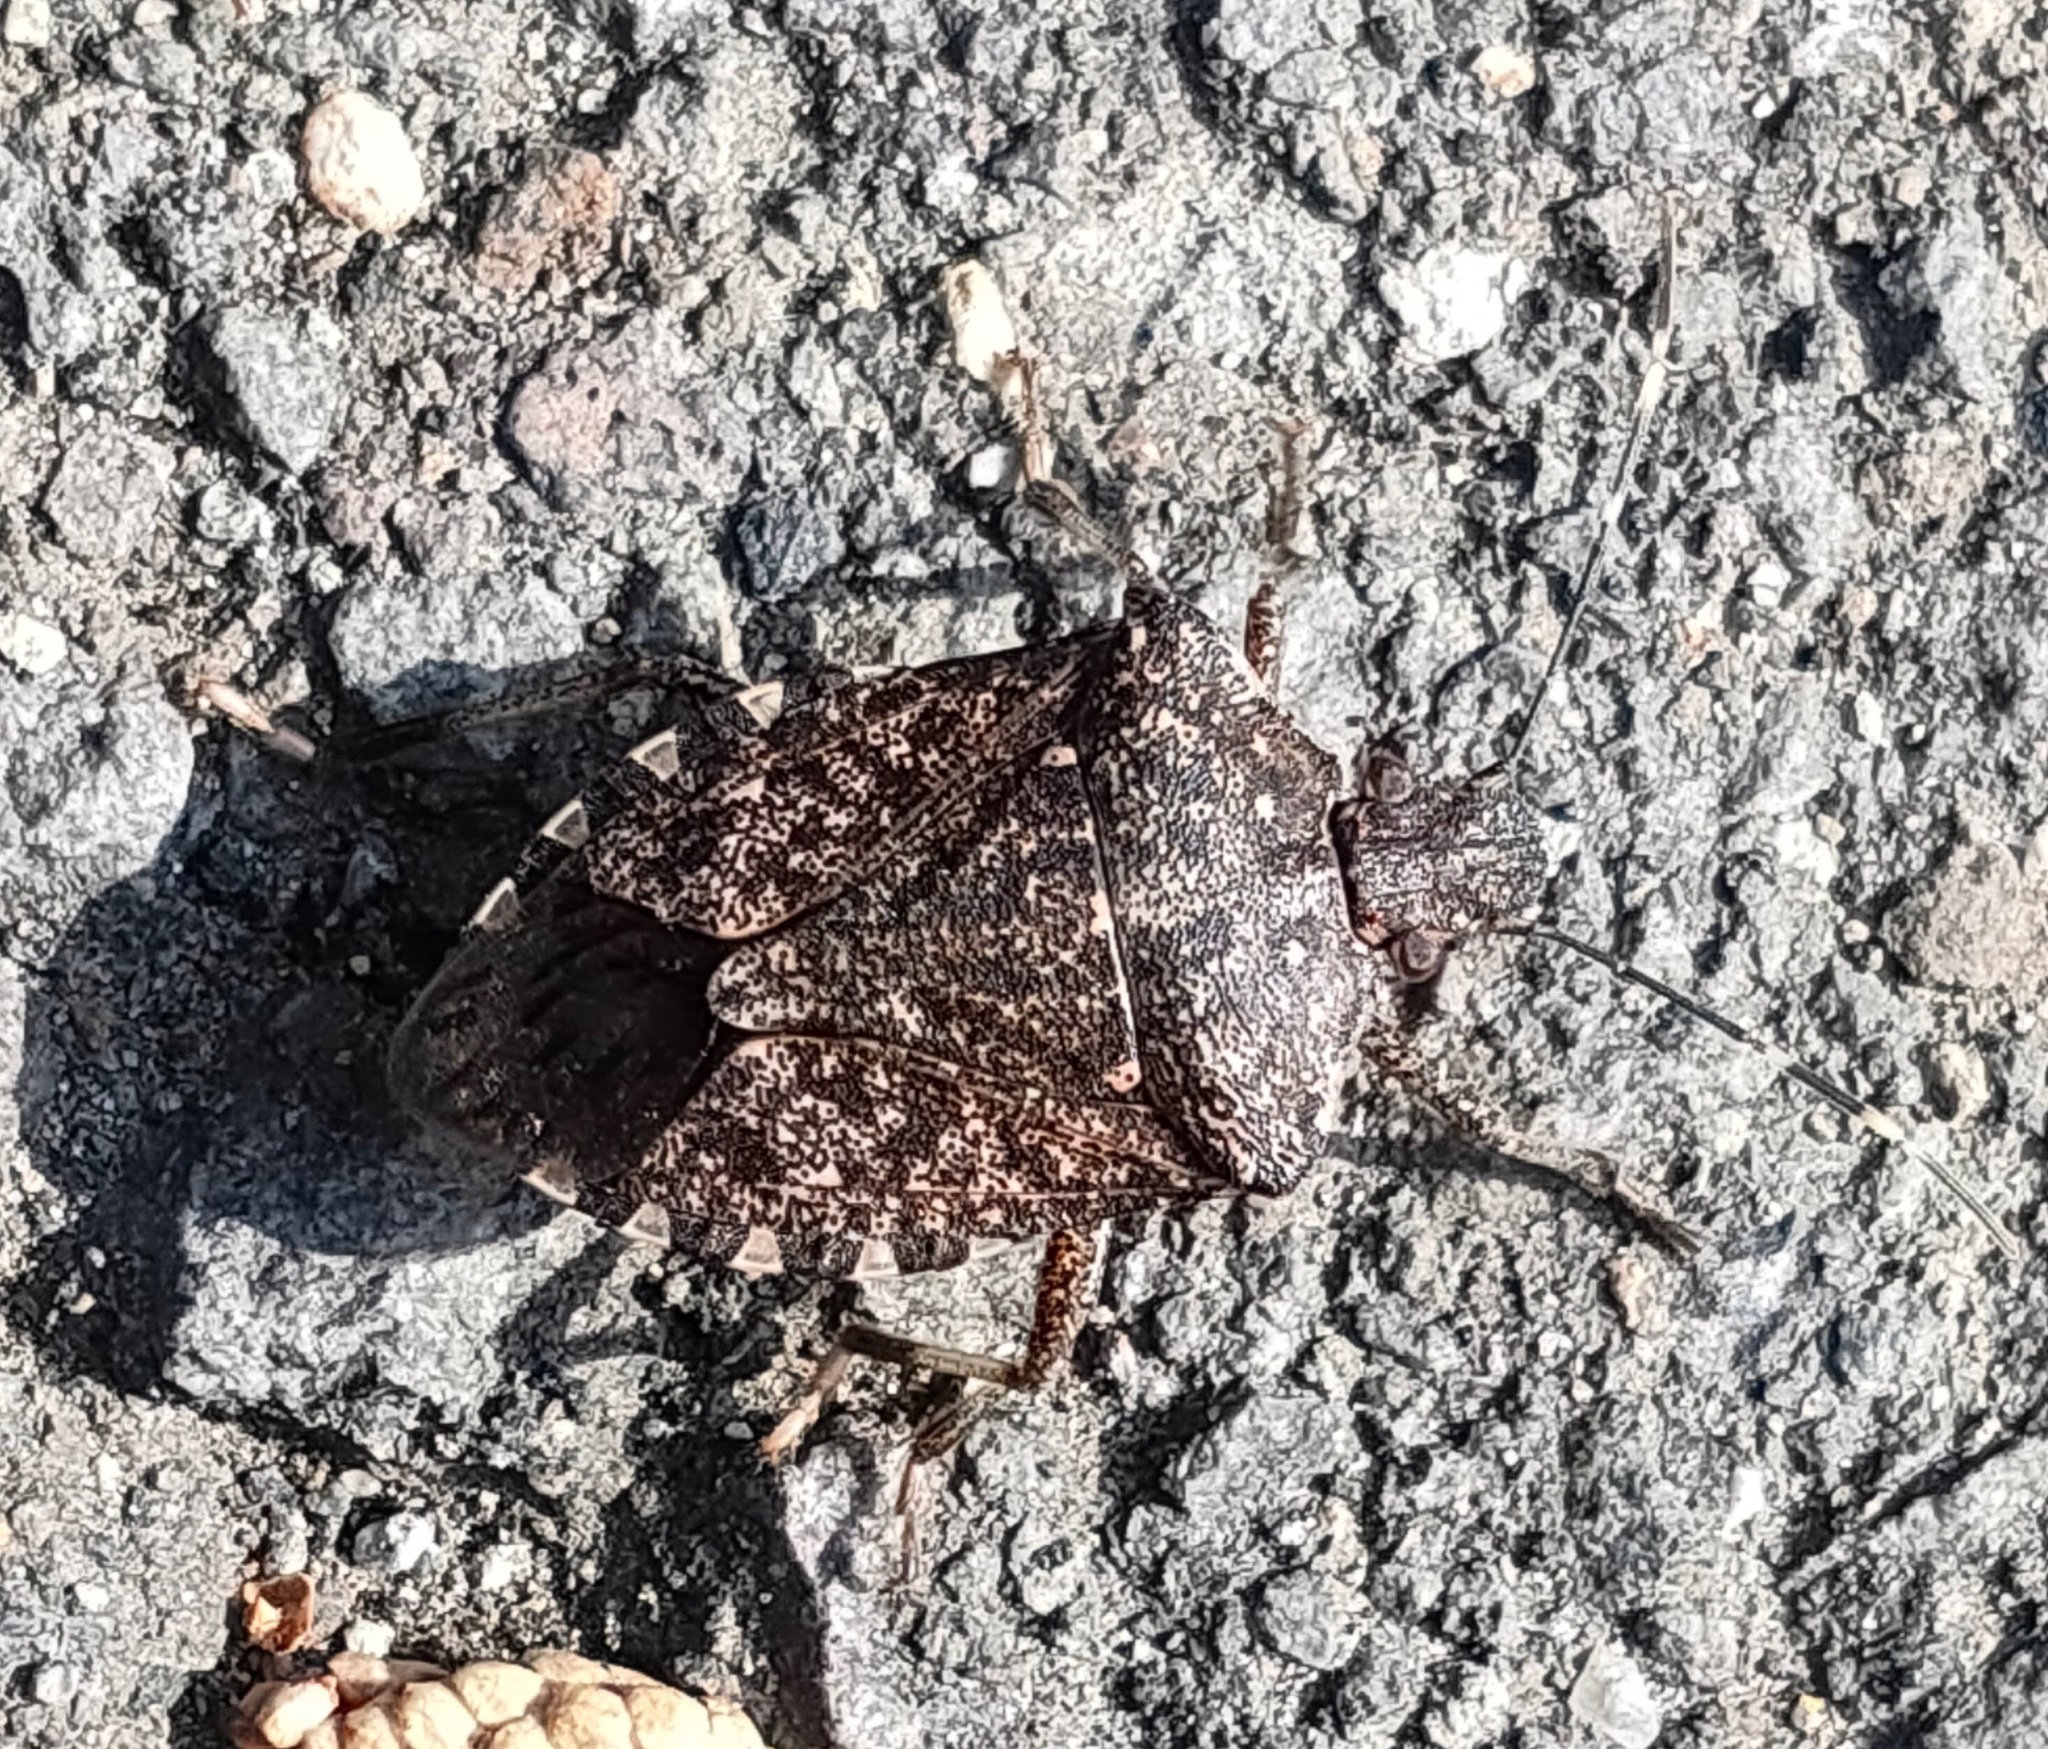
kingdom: Animalia
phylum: Arthropoda
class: Insecta
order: Hemiptera
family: Pentatomidae
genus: Halyomorpha
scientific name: Halyomorpha halys
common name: Brown marmorated stink bug
